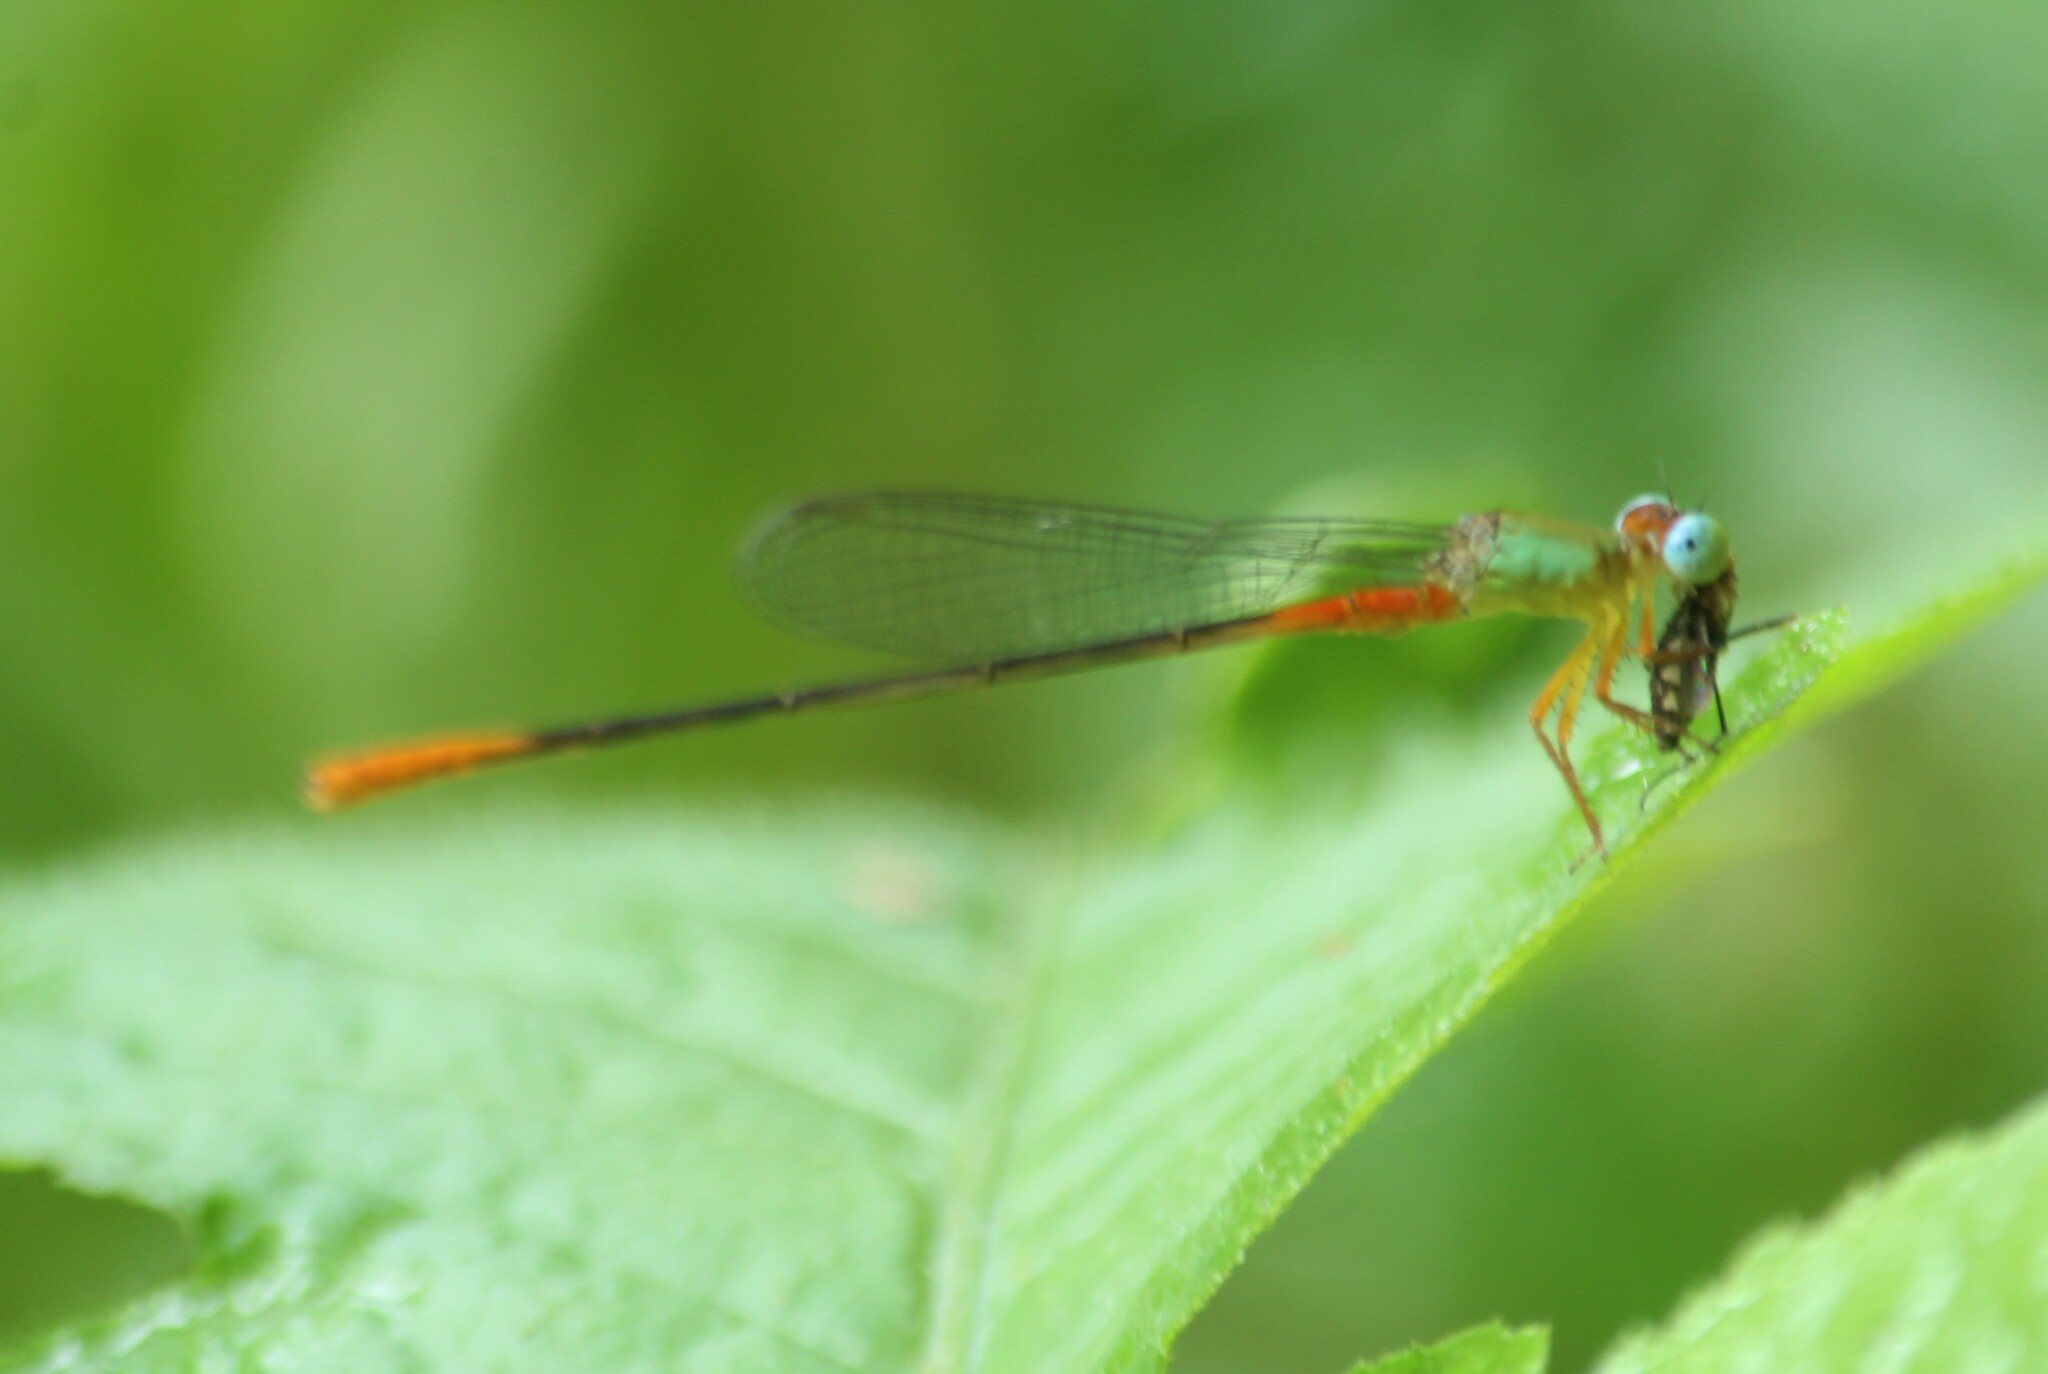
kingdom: Animalia
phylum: Arthropoda
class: Insecta
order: Odonata
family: Coenagrionidae
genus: Ceriagrion
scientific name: Ceriagrion cerinorubellum
